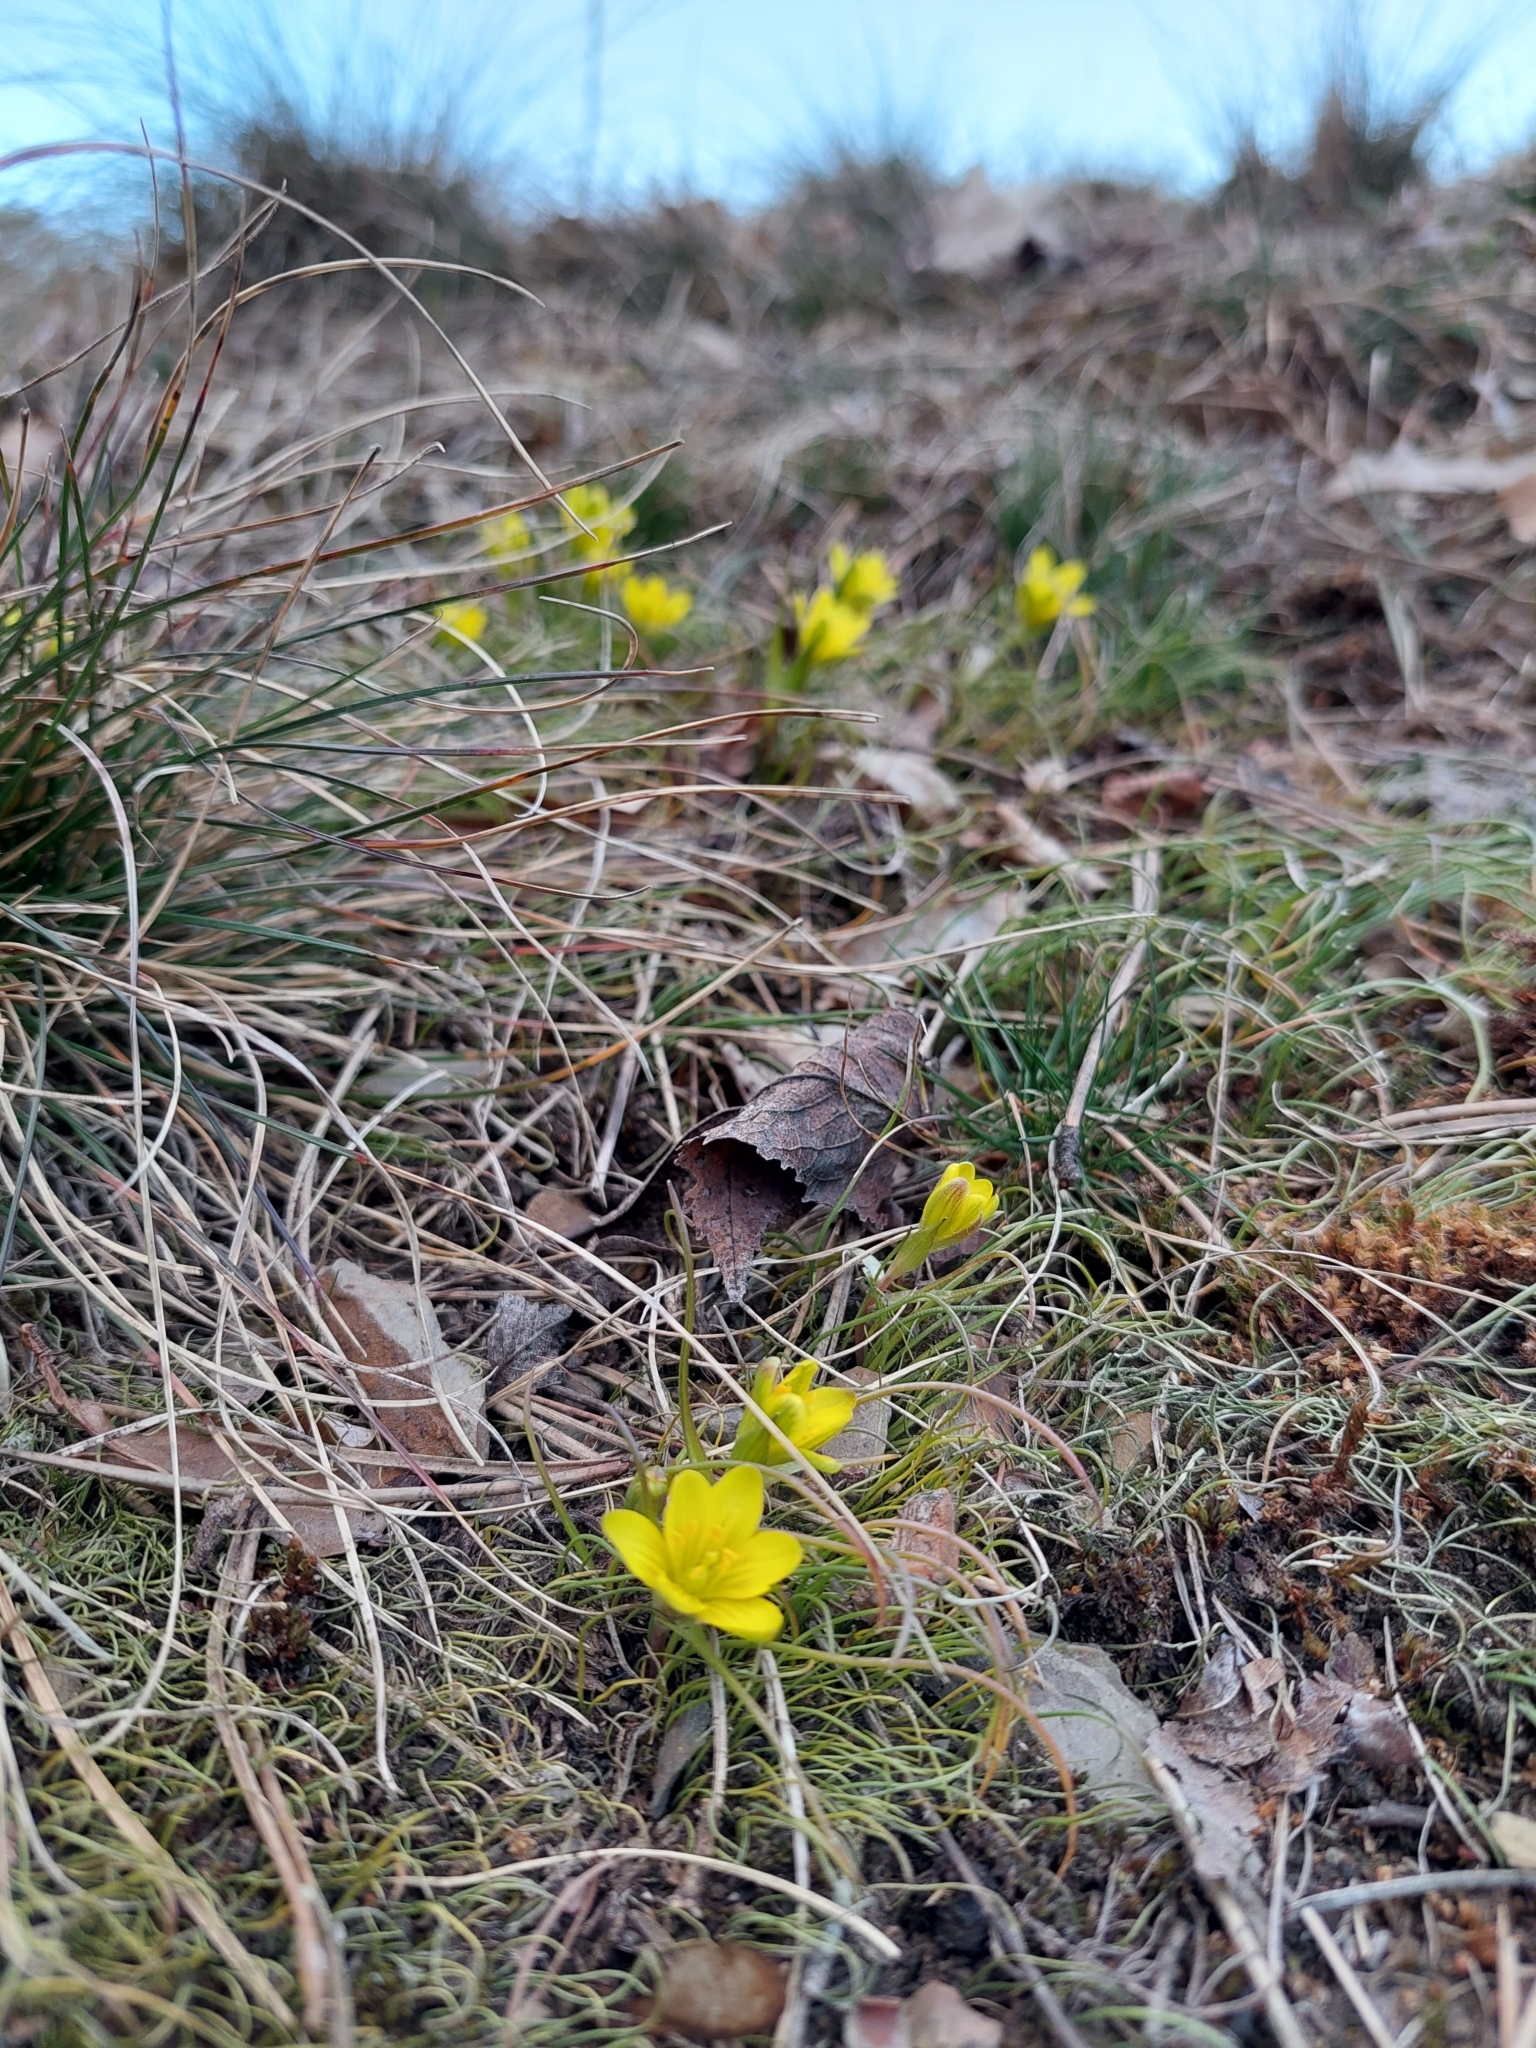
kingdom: Plantae
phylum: Tracheophyta
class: Liliopsida
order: Liliales
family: Liliaceae
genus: Gagea
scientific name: Gagea bohemica
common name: Early star-of-bethlehem
